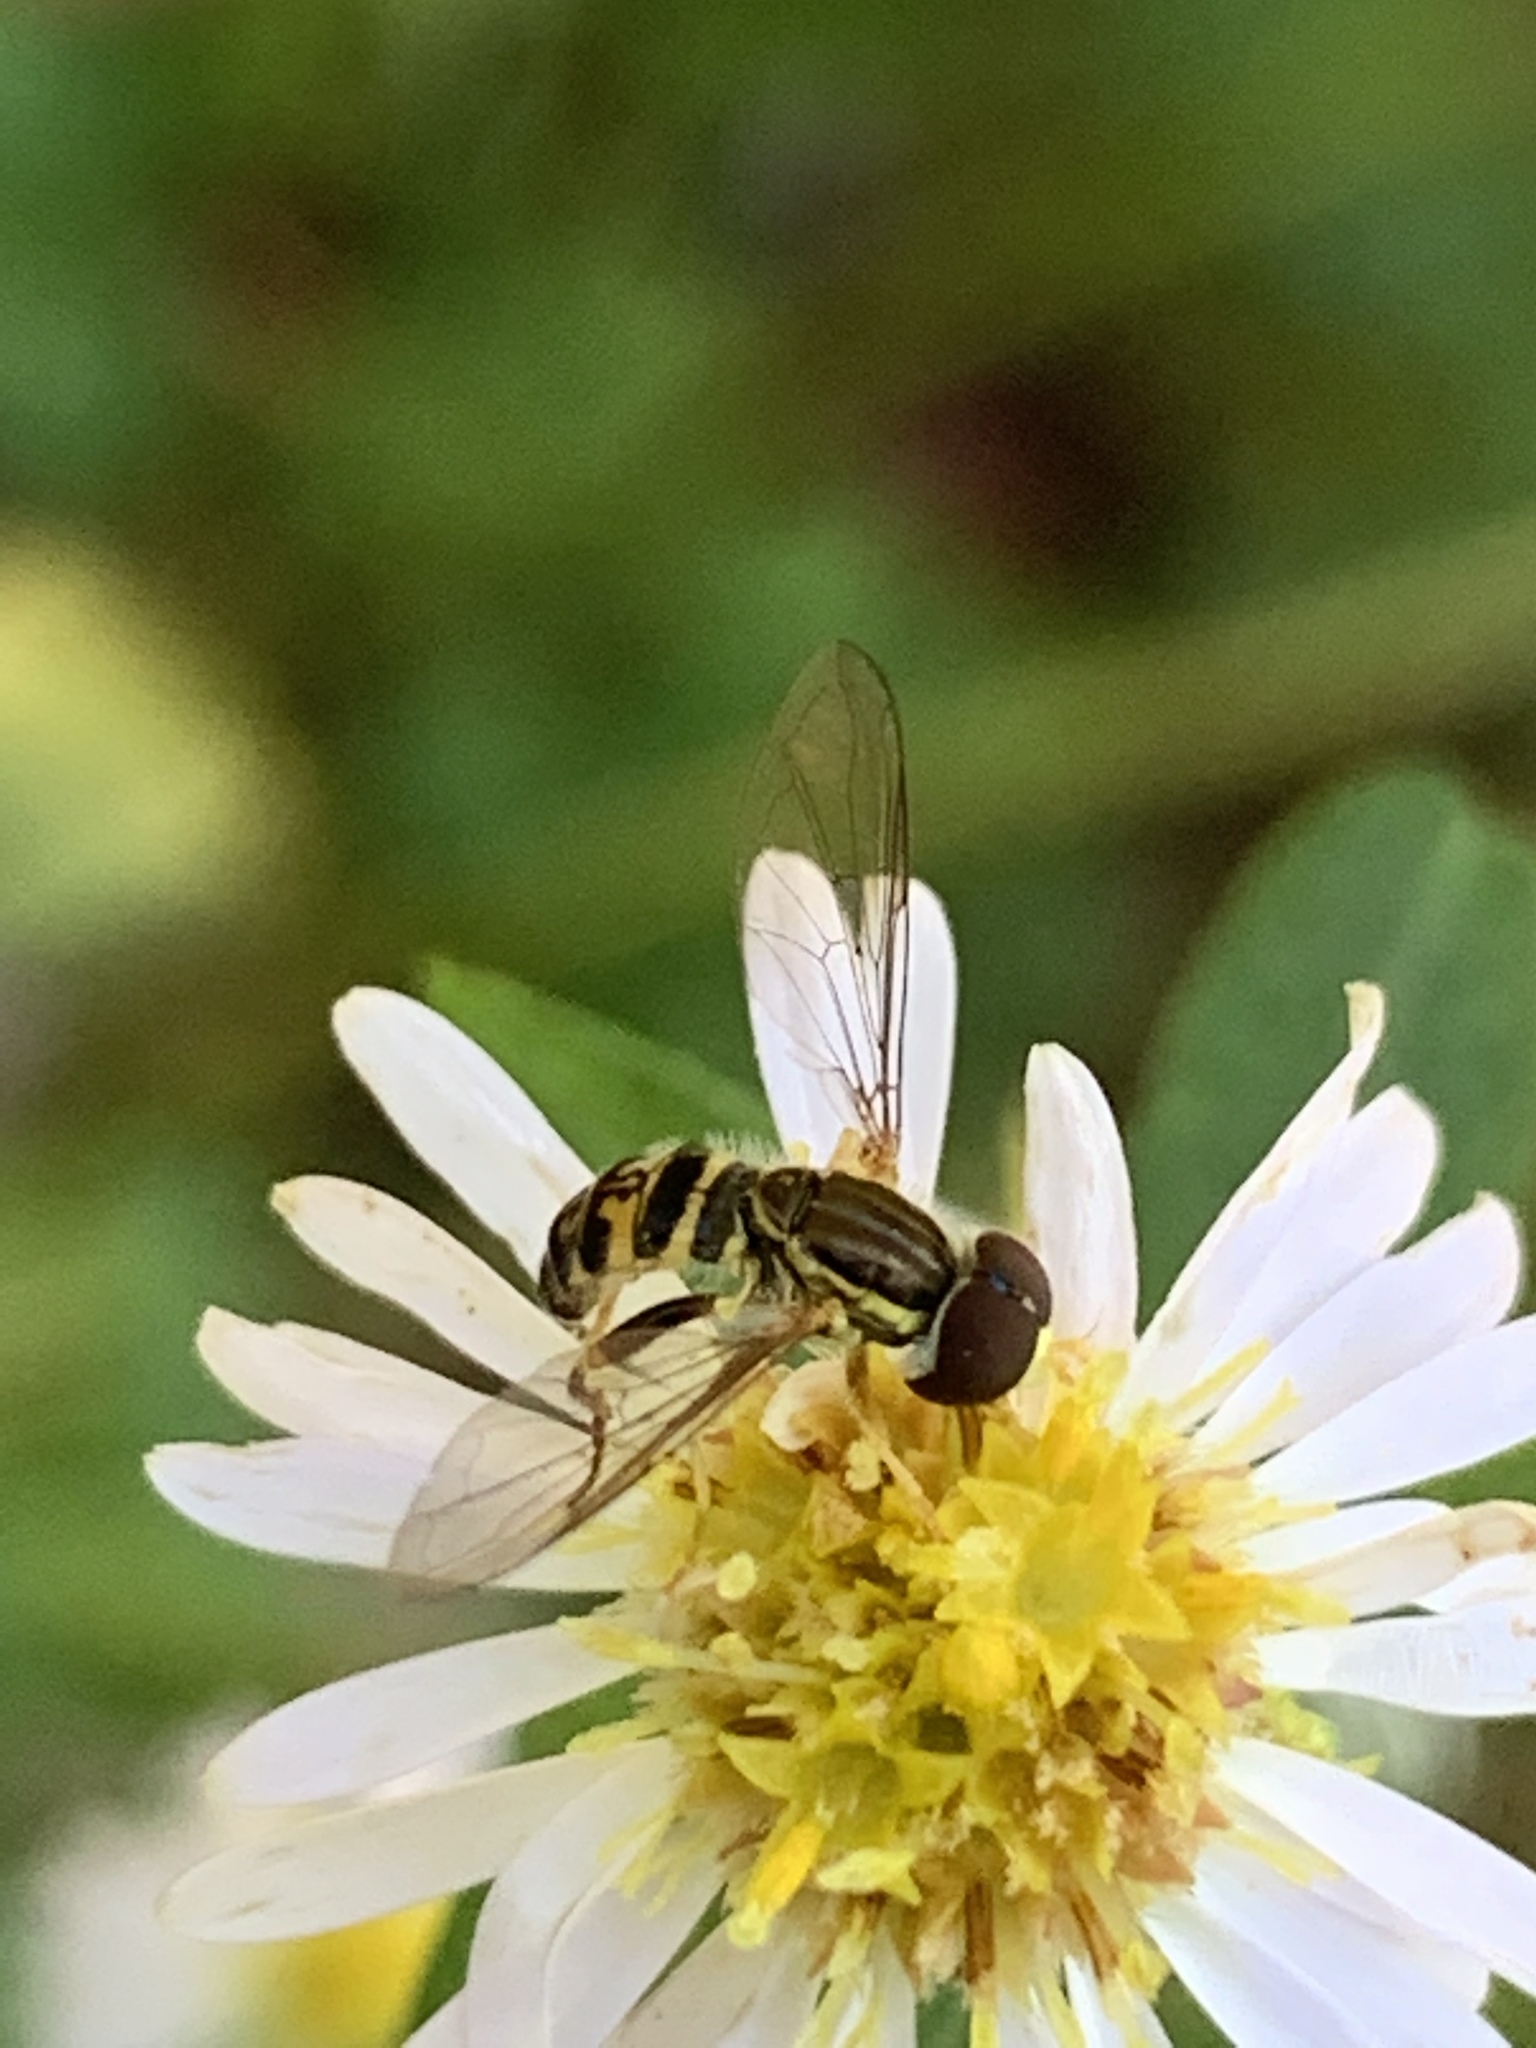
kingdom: Animalia
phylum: Arthropoda
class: Insecta
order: Diptera
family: Syrphidae
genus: Toxomerus
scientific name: Toxomerus geminatus
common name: Eastern calligrapher
